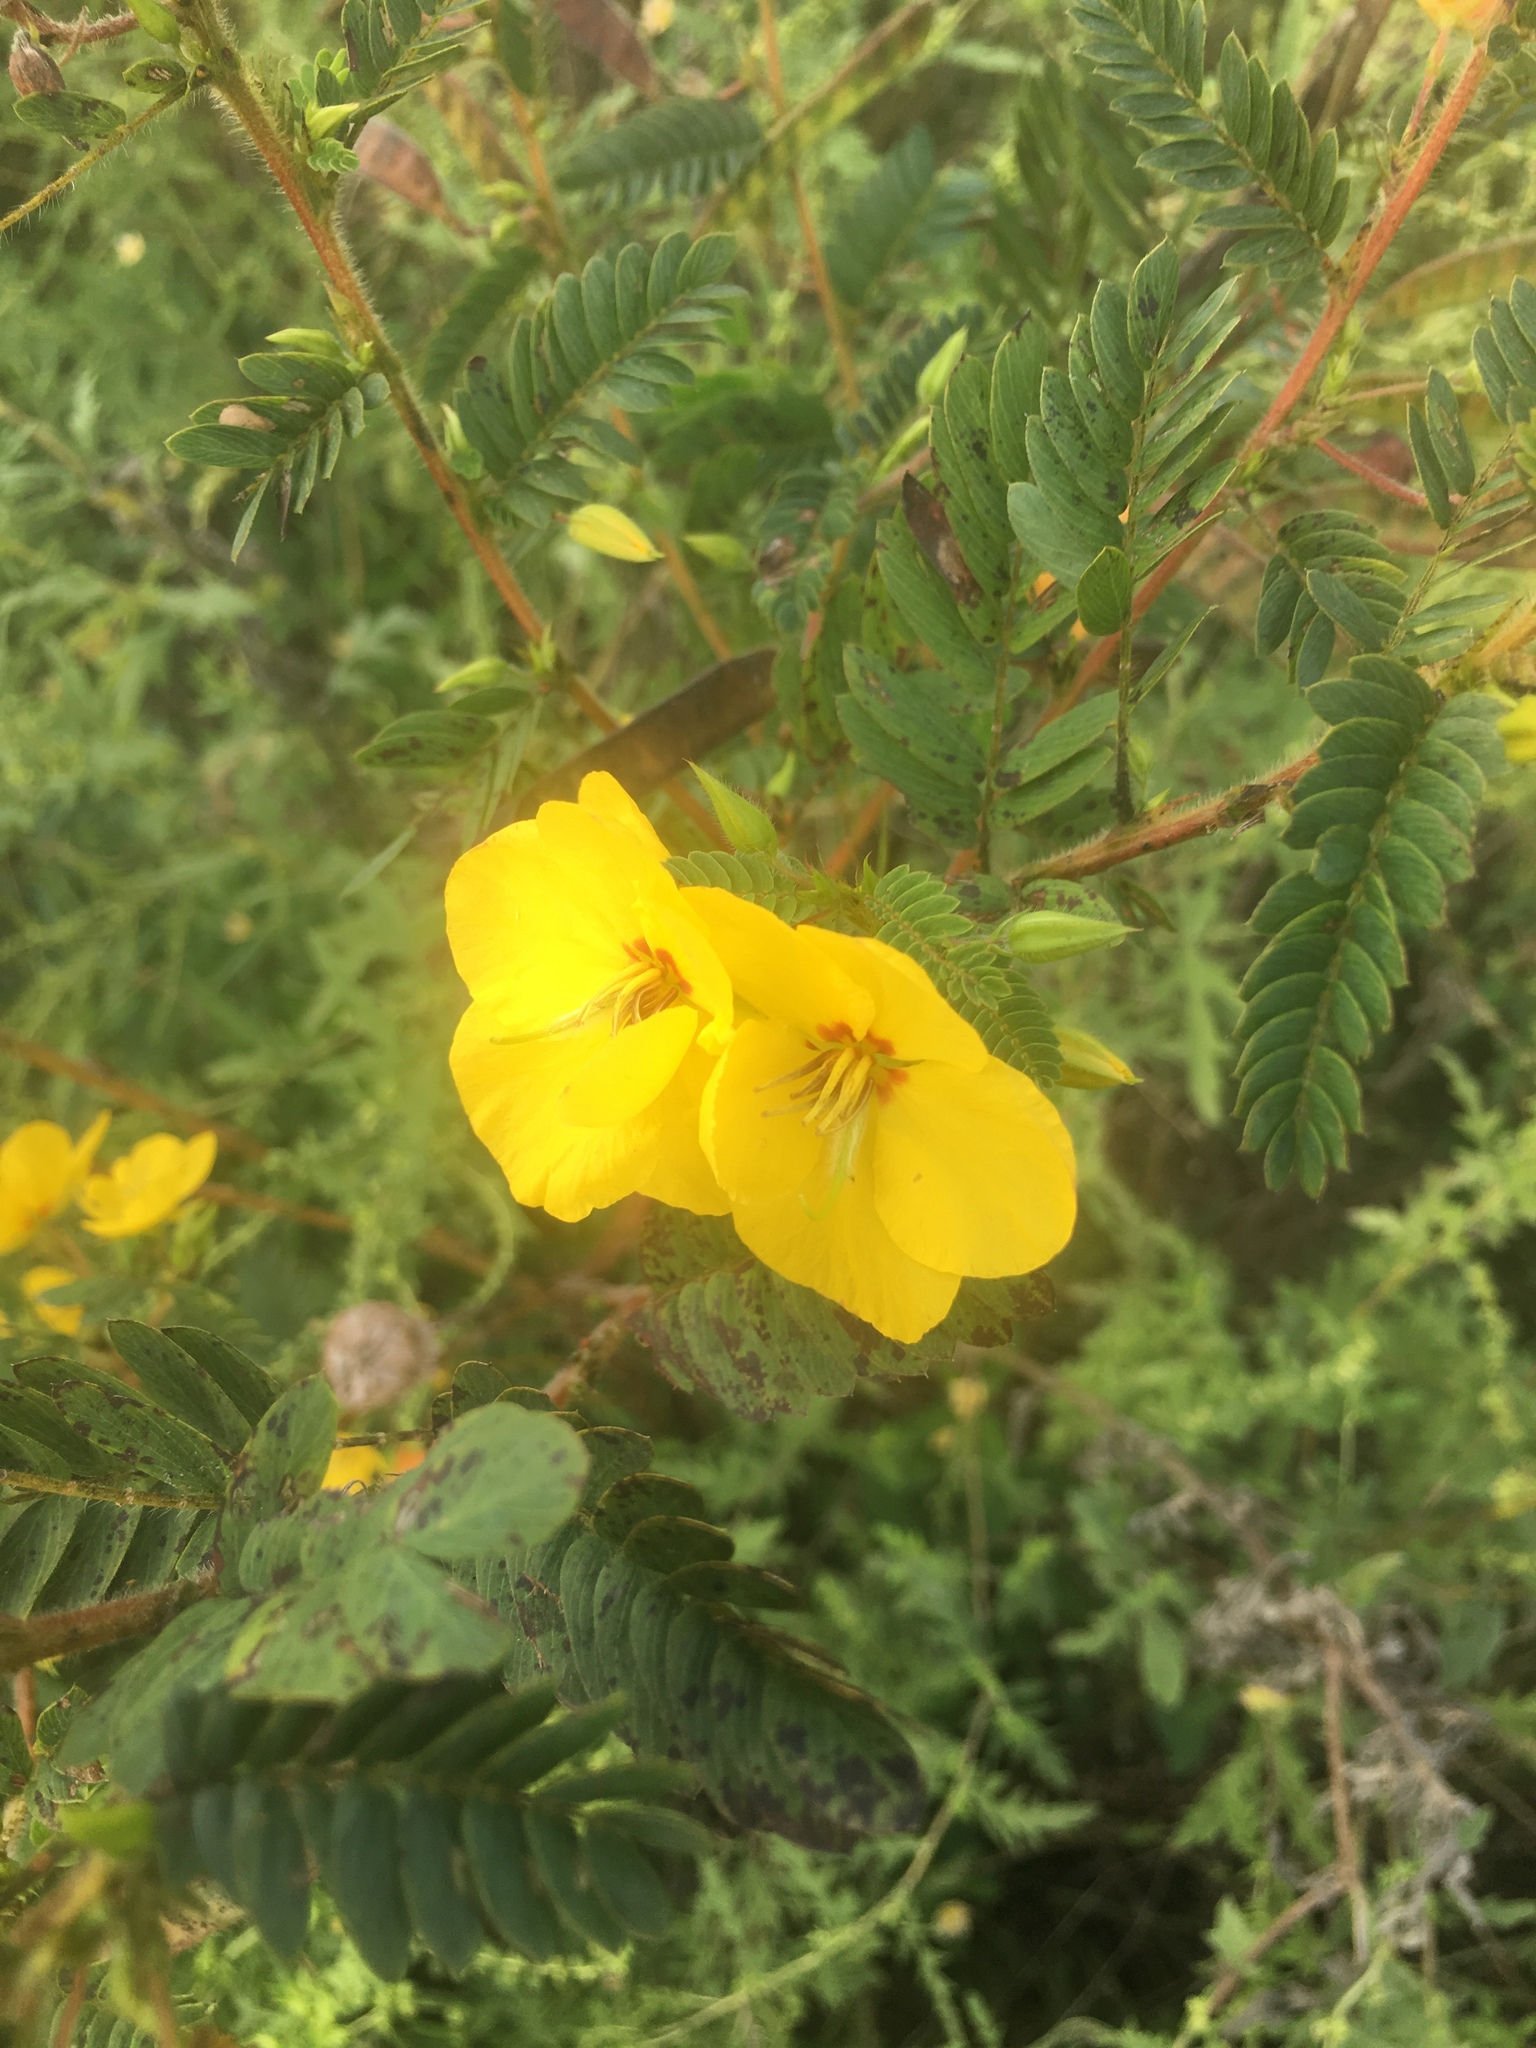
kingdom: Plantae
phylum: Tracheophyta
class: Magnoliopsida
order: Fabales
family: Fabaceae
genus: Chamaecrista
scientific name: Chamaecrista fasciculata
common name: Golden cassia
